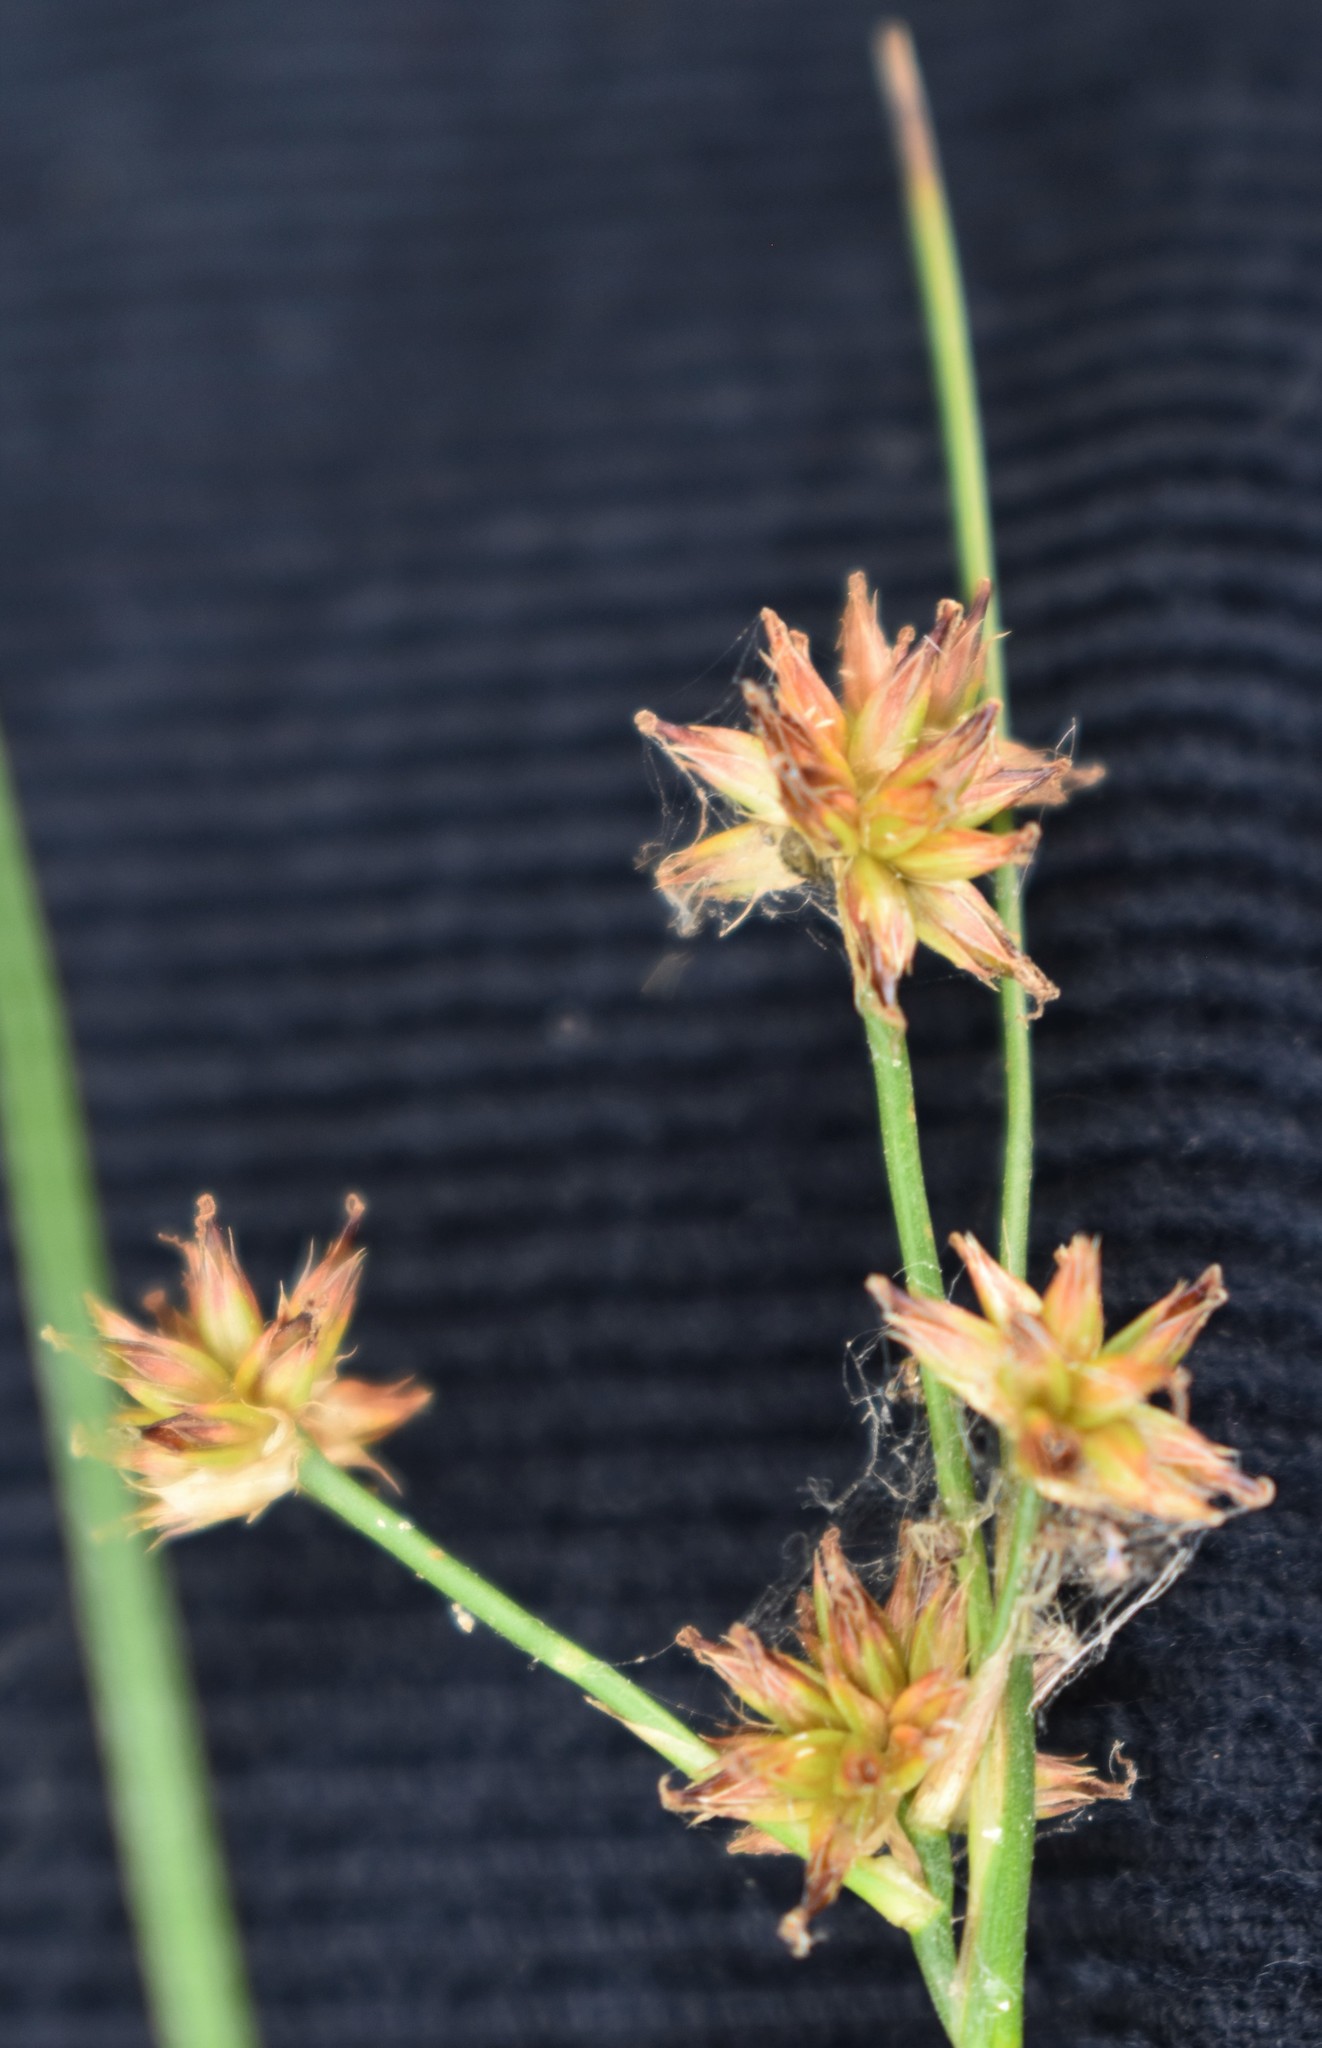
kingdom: Plantae
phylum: Tracheophyta
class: Liliopsida
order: Poales
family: Juncaceae
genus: Juncus
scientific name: Juncus nodosus
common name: Knotted rush
